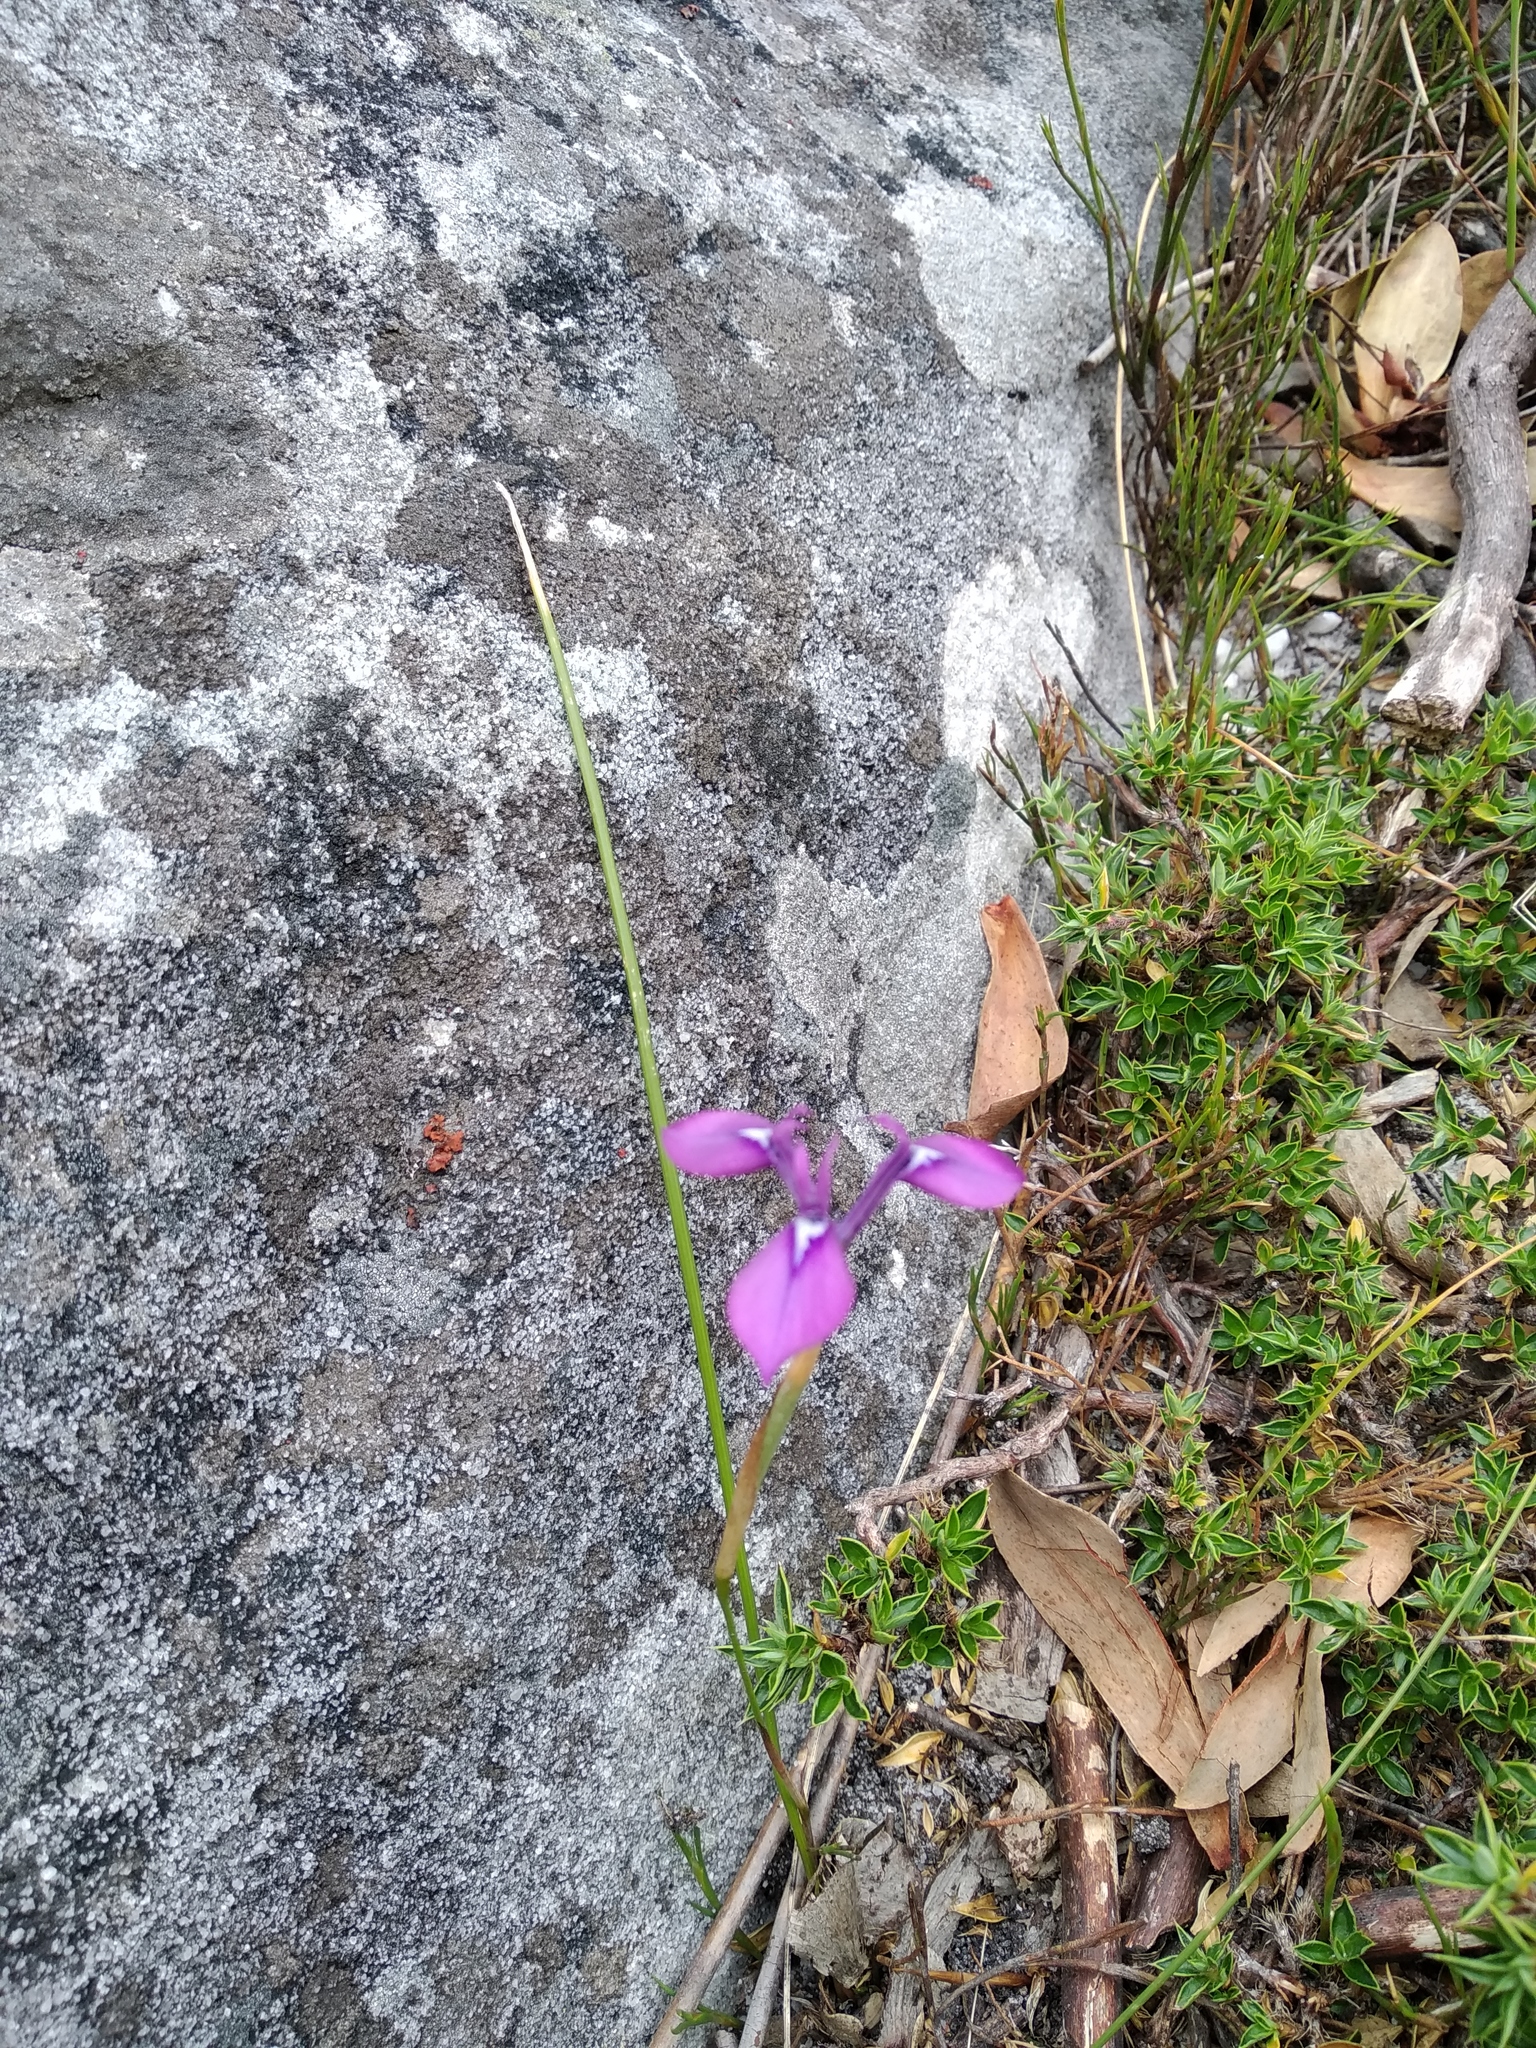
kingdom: Plantae
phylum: Tracheophyta
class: Liliopsida
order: Asparagales
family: Iridaceae
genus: Moraea
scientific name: Moraea tripetala
